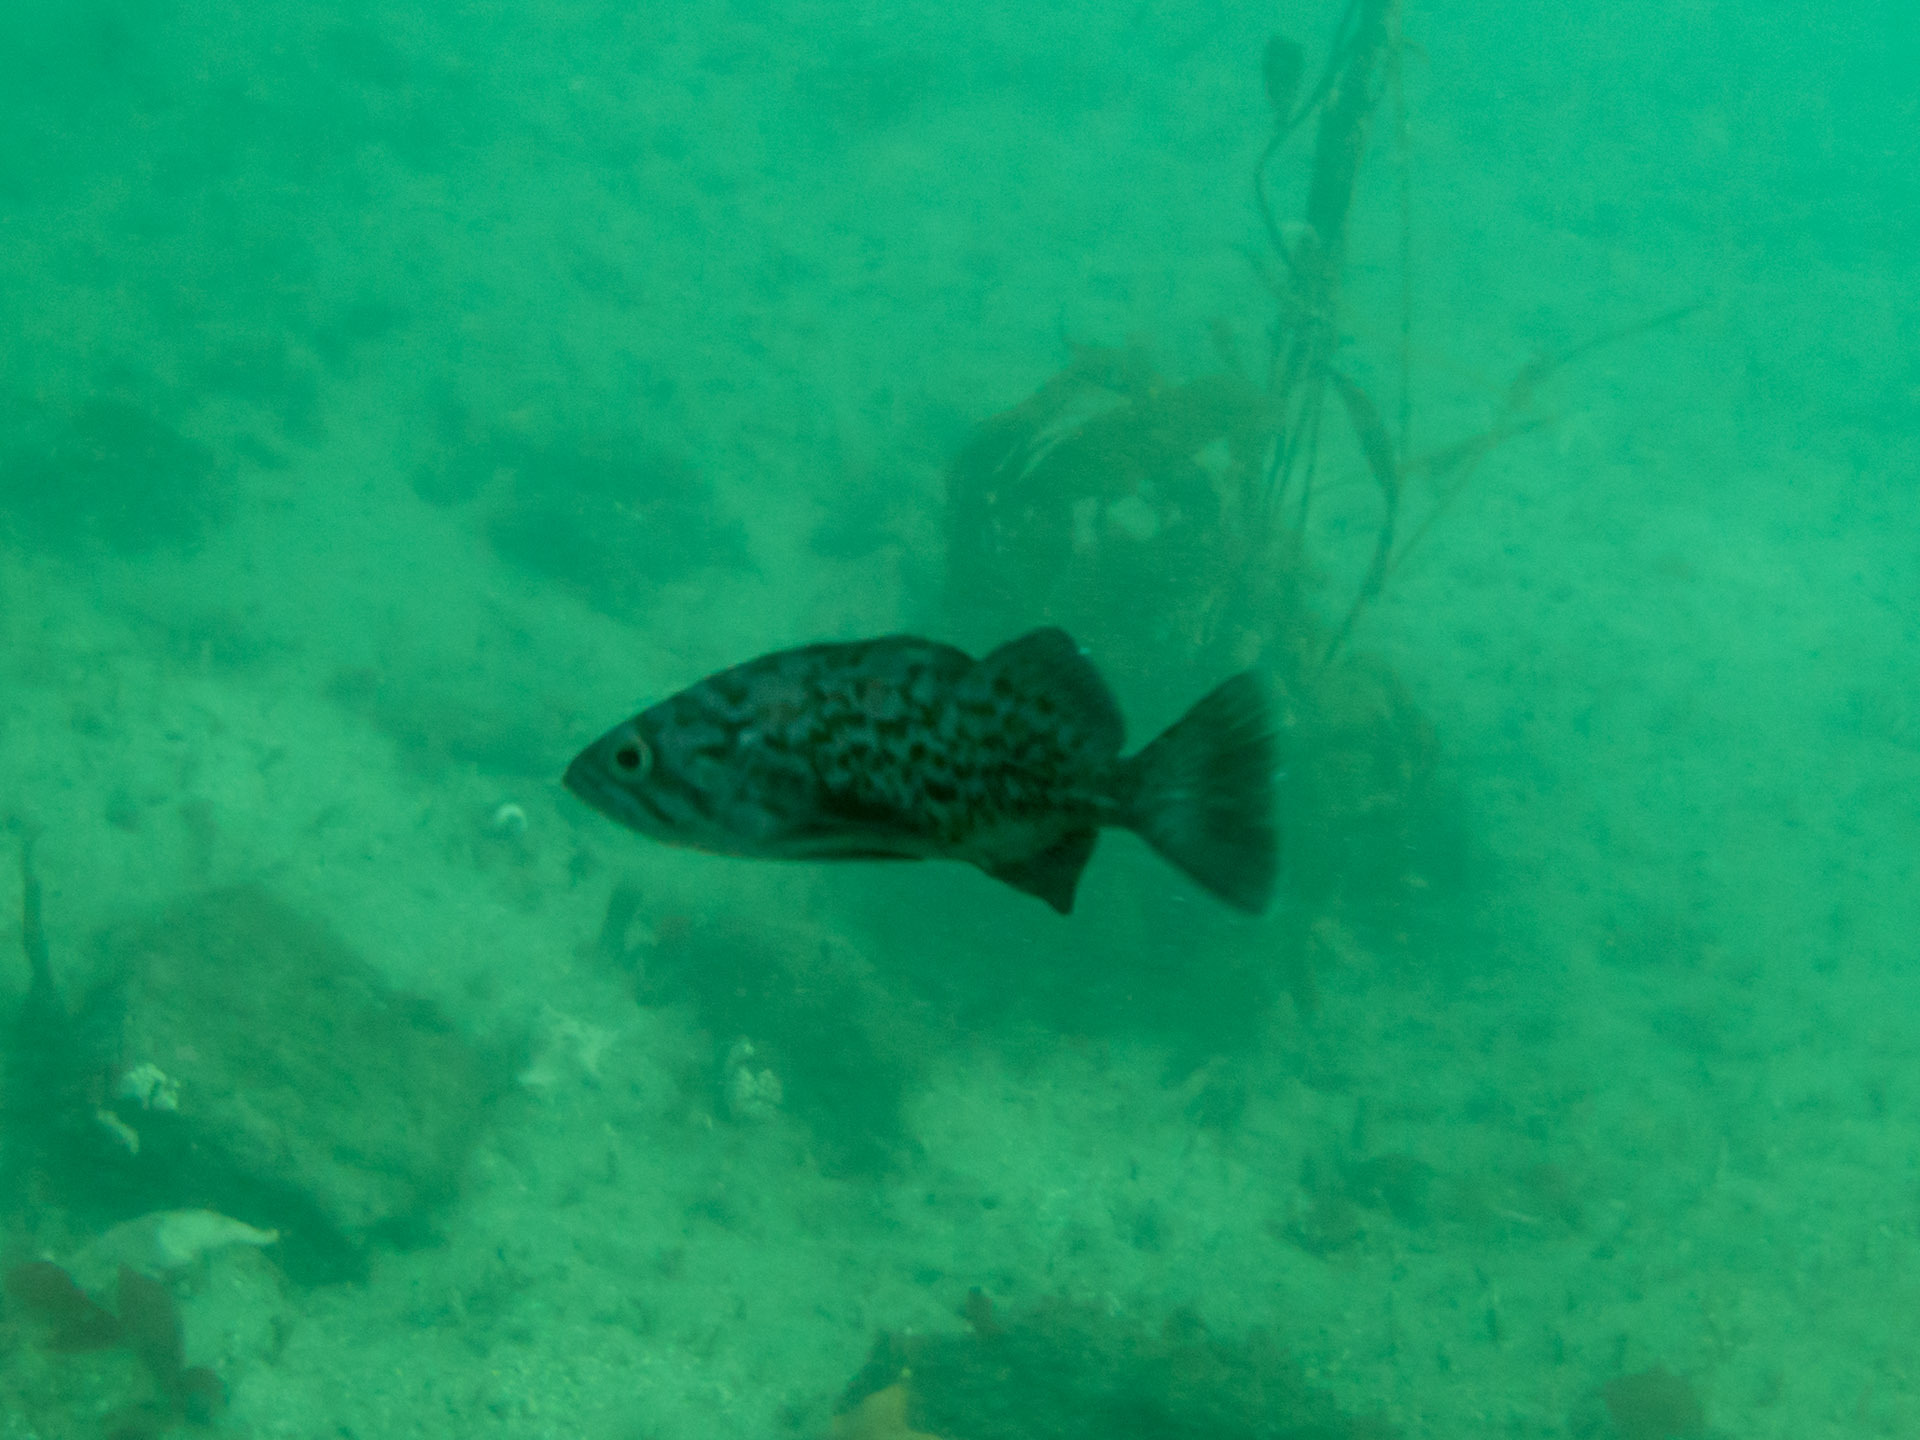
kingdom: Animalia
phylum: Chordata
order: Scorpaeniformes
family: Sebastidae
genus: Sebastes
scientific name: Sebastes mystinus
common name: Blue rockfish
